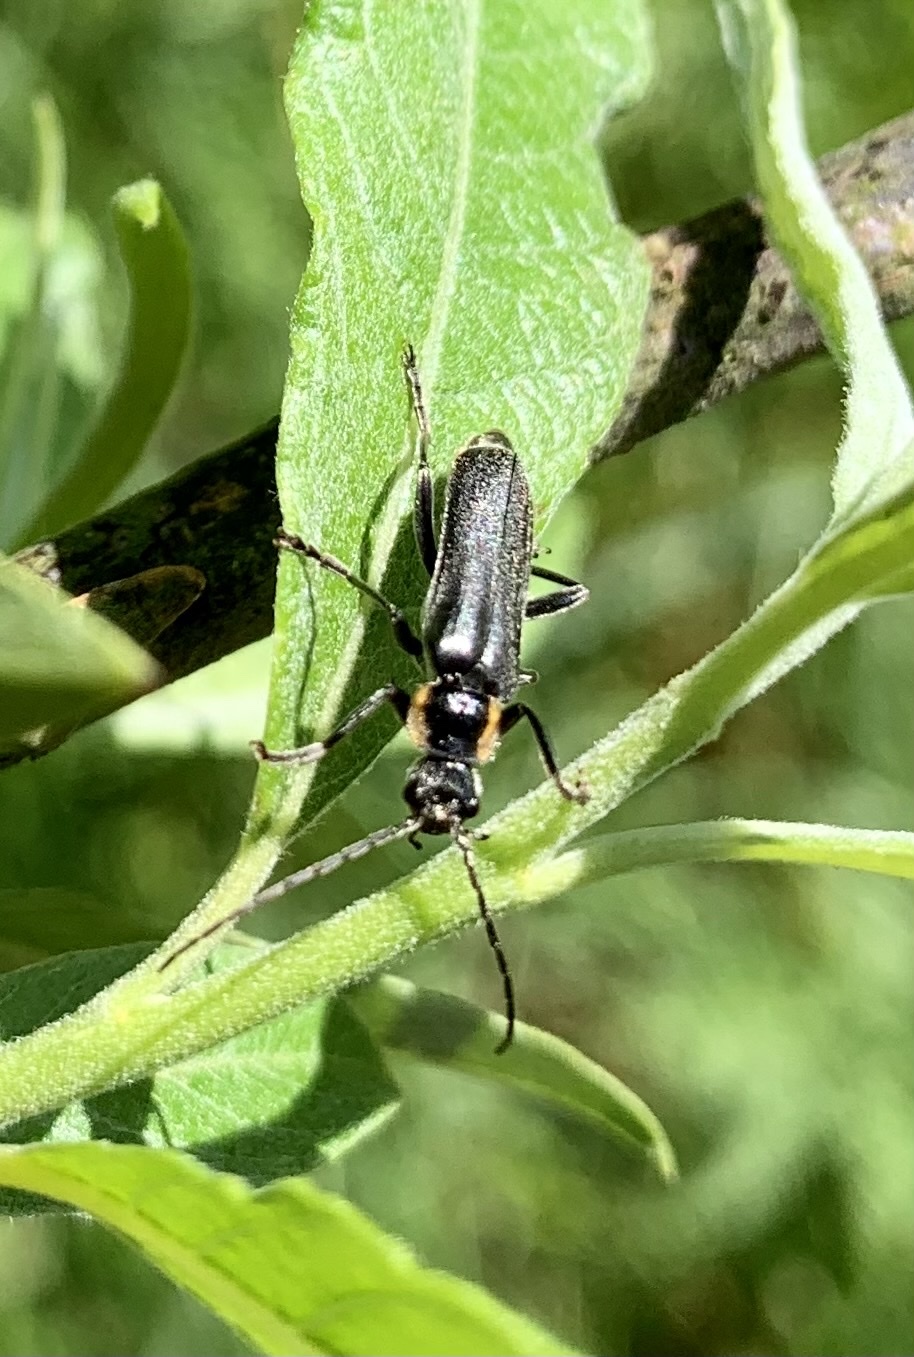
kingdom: Animalia
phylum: Arthropoda
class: Insecta
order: Coleoptera
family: Cantharidae
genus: Cantharis
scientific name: Cantharis obscura
